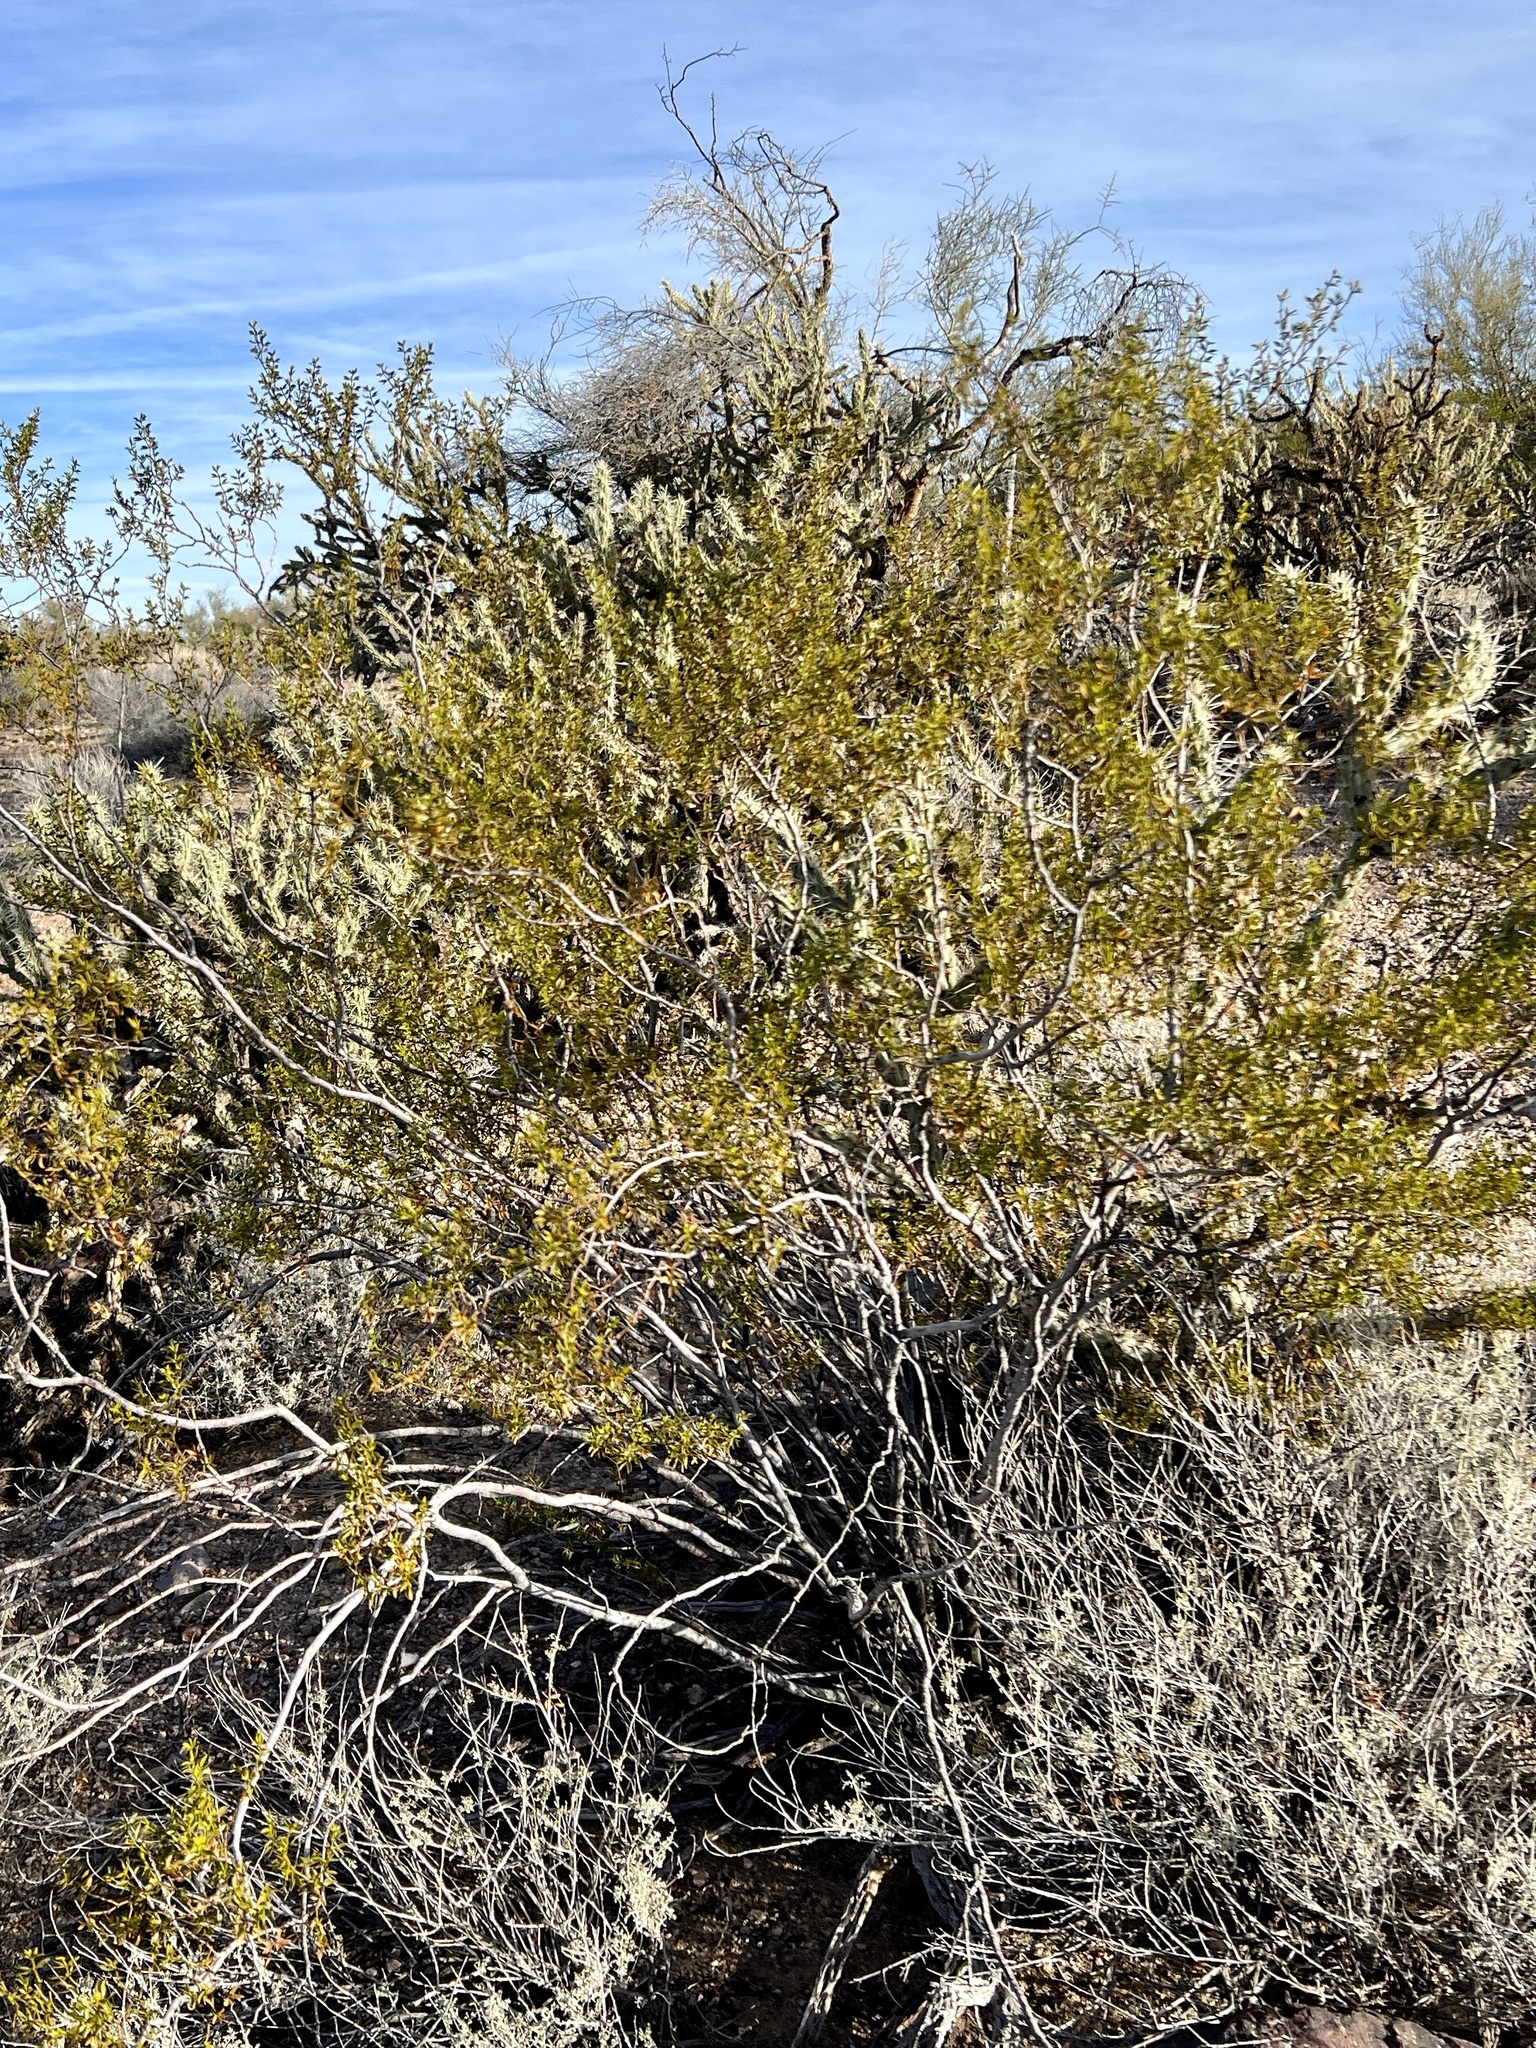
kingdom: Plantae
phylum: Tracheophyta
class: Magnoliopsida
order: Zygophyllales
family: Zygophyllaceae
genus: Larrea
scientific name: Larrea tridentata
